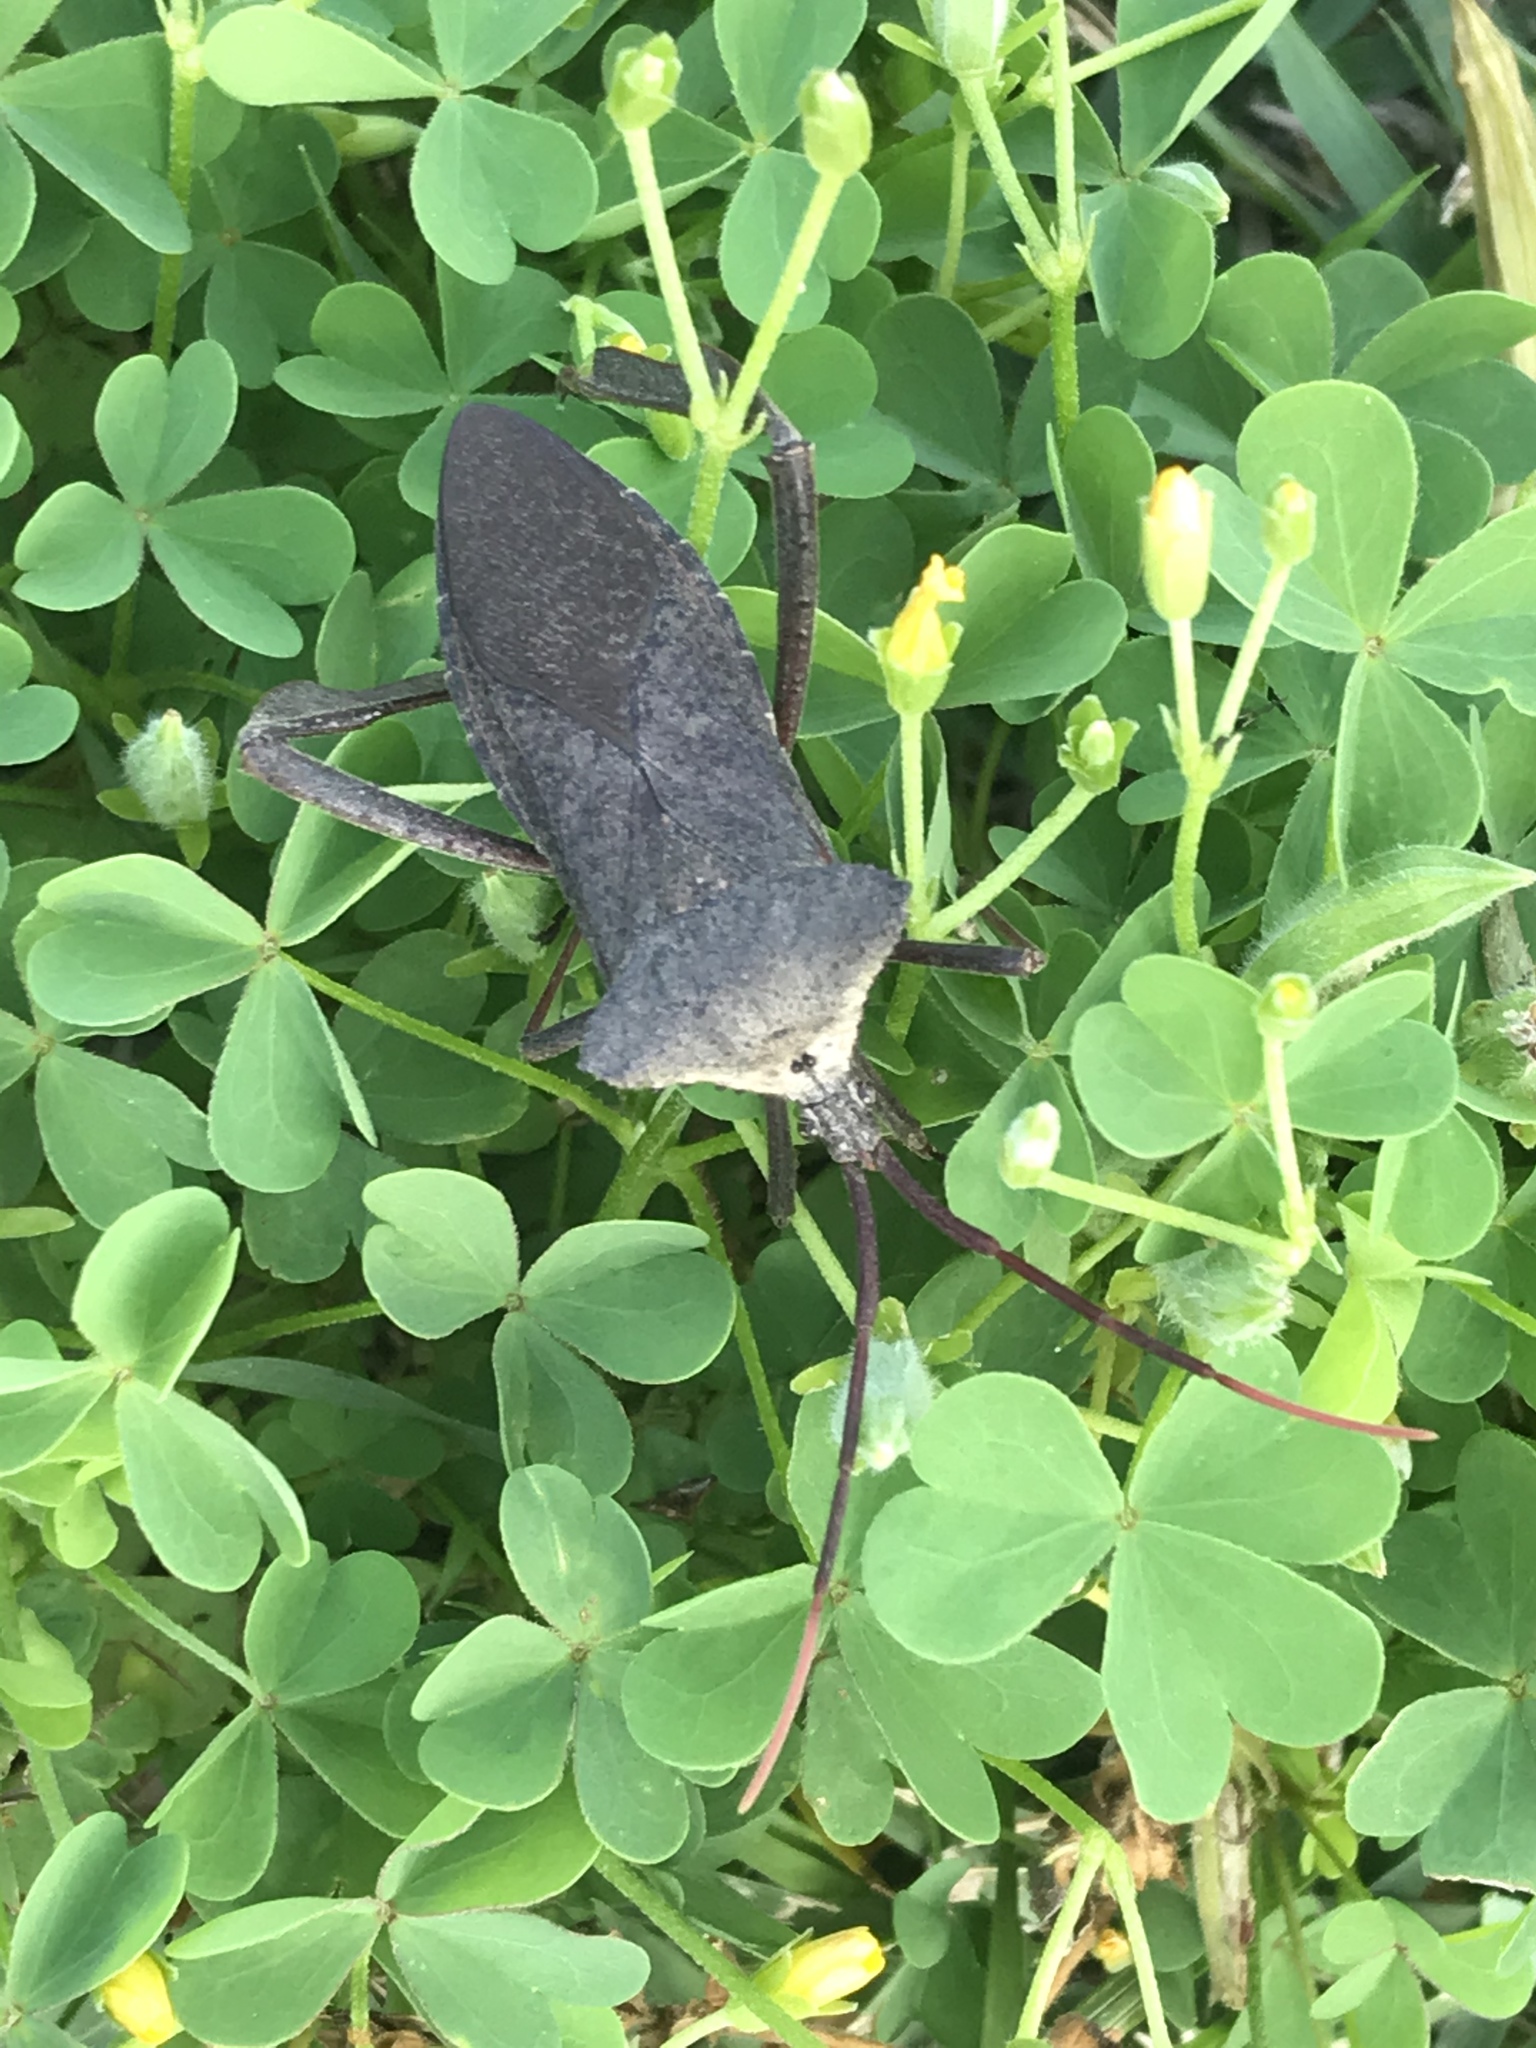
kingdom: Animalia
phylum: Arthropoda
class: Insecta
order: Hemiptera
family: Coreidae
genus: Acanthocephala
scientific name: Acanthocephala declivis
